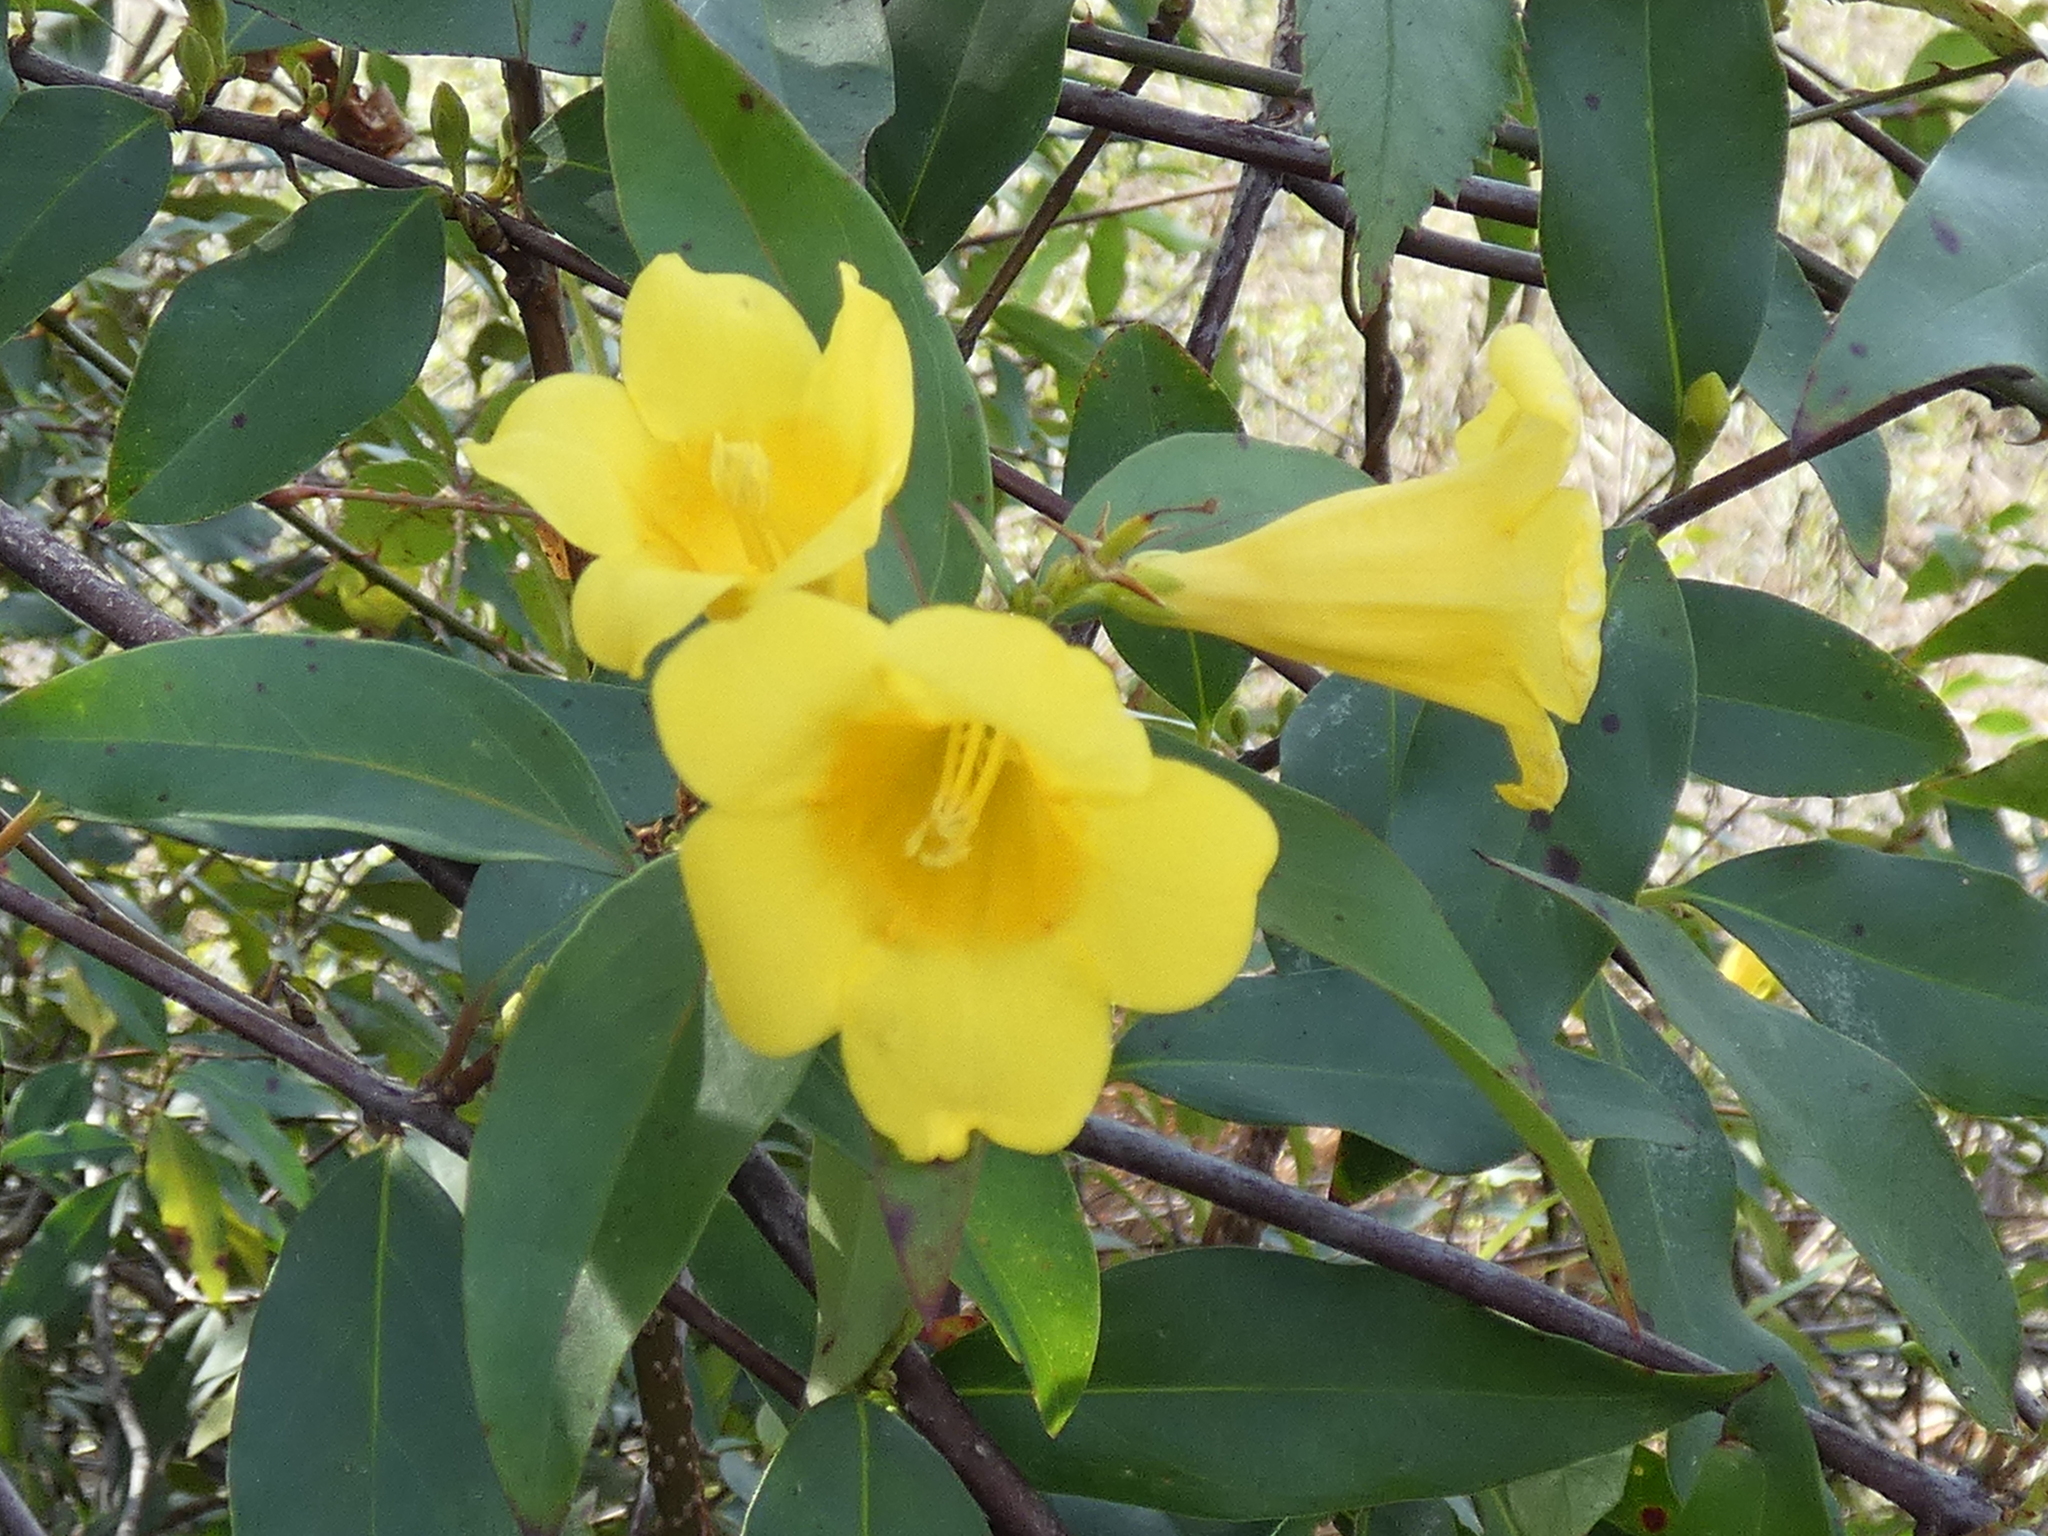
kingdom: Plantae
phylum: Tracheophyta
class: Magnoliopsida
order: Gentianales
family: Gelsemiaceae
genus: Gelsemium
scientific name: Gelsemium sempervirens
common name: Carolina-jasmine
